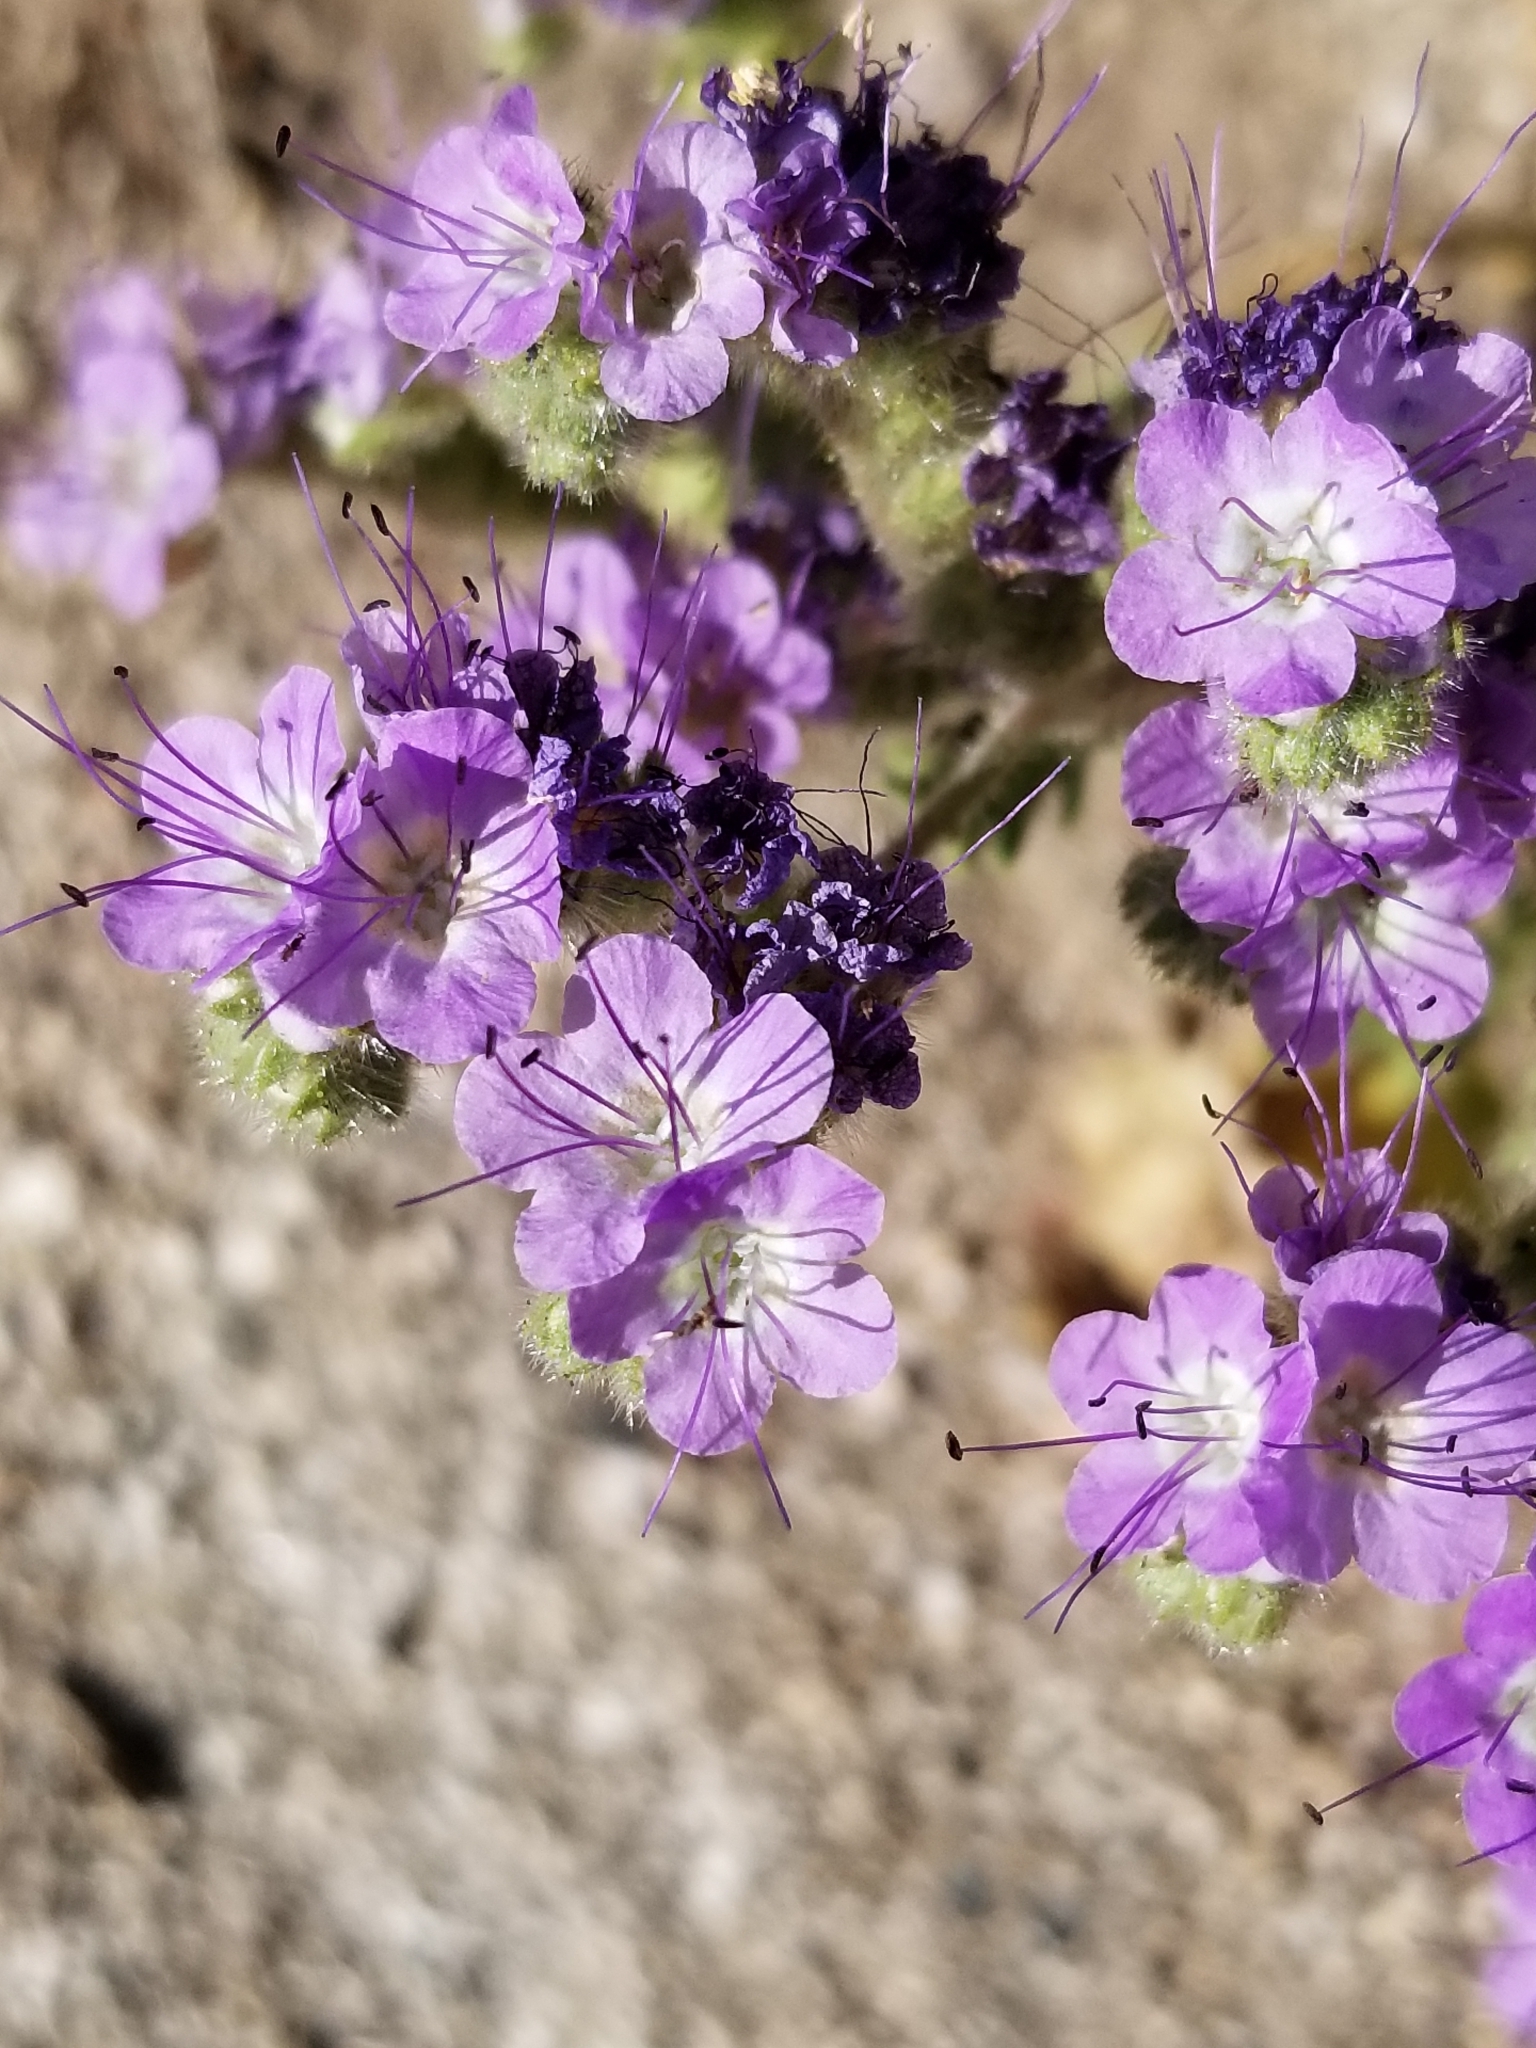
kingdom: Plantae
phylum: Tracheophyta
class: Magnoliopsida
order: Boraginales
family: Hydrophyllaceae
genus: Phacelia
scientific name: Phacelia crenulata
